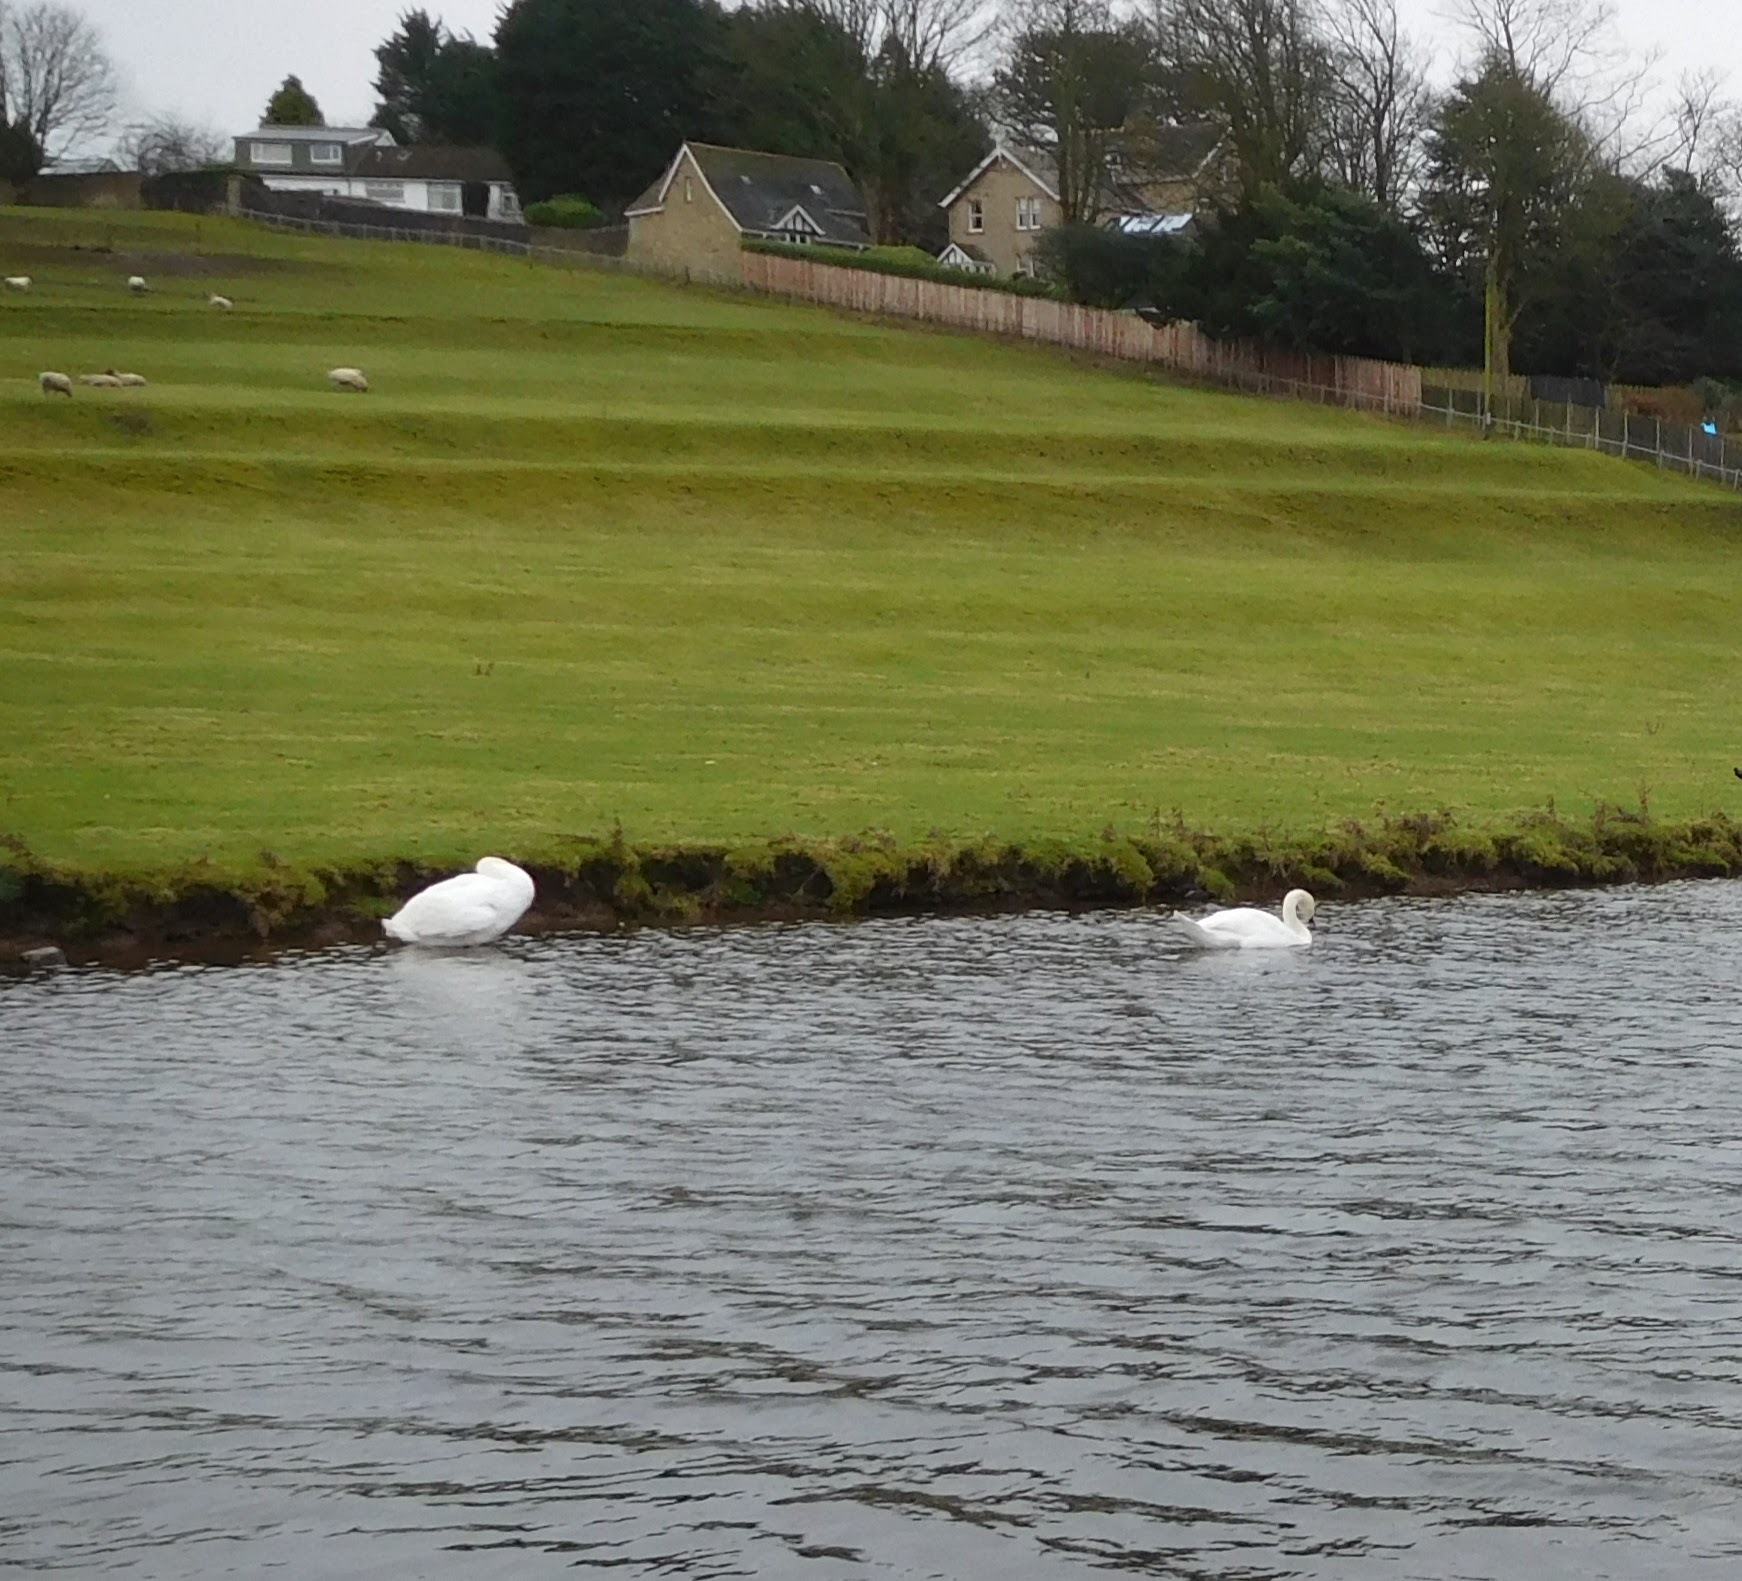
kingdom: Animalia
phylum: Chordata
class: Aves
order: Anseriformes
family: Anatidae
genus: Cygnus
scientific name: Cygnus olor
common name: Mute swan
